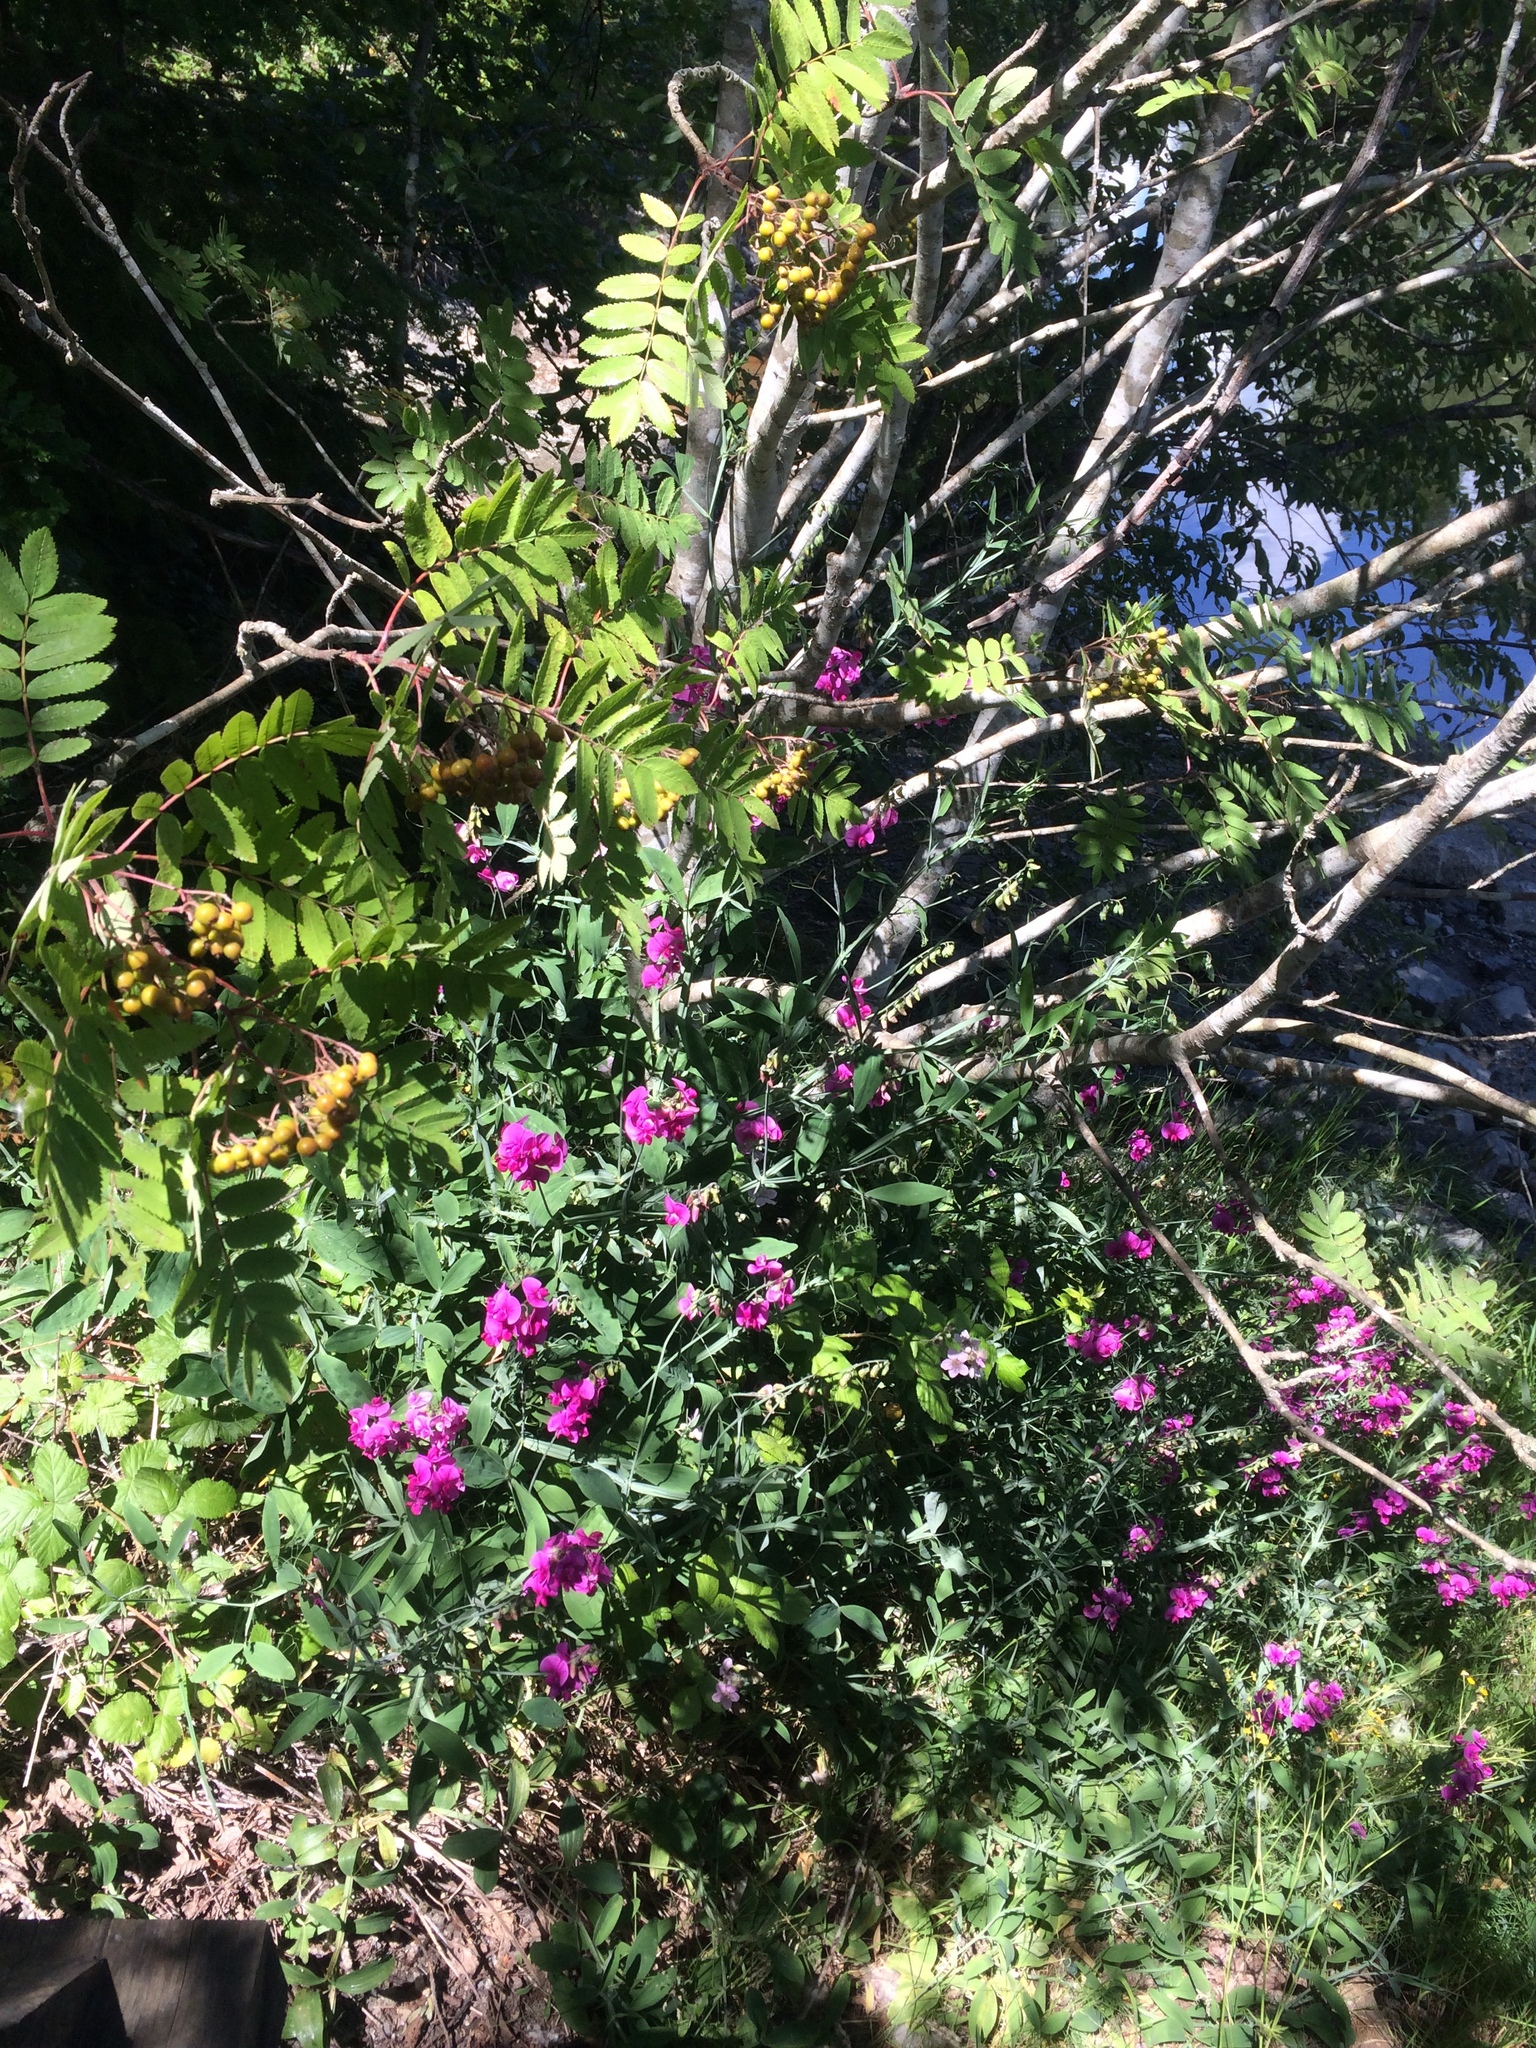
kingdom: Plantae
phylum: Tracheophyta
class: Magnoliopsida
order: Fabales
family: Fabaceae
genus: Lathyrus
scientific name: Lathyrus latifolius
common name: Perennial pea
